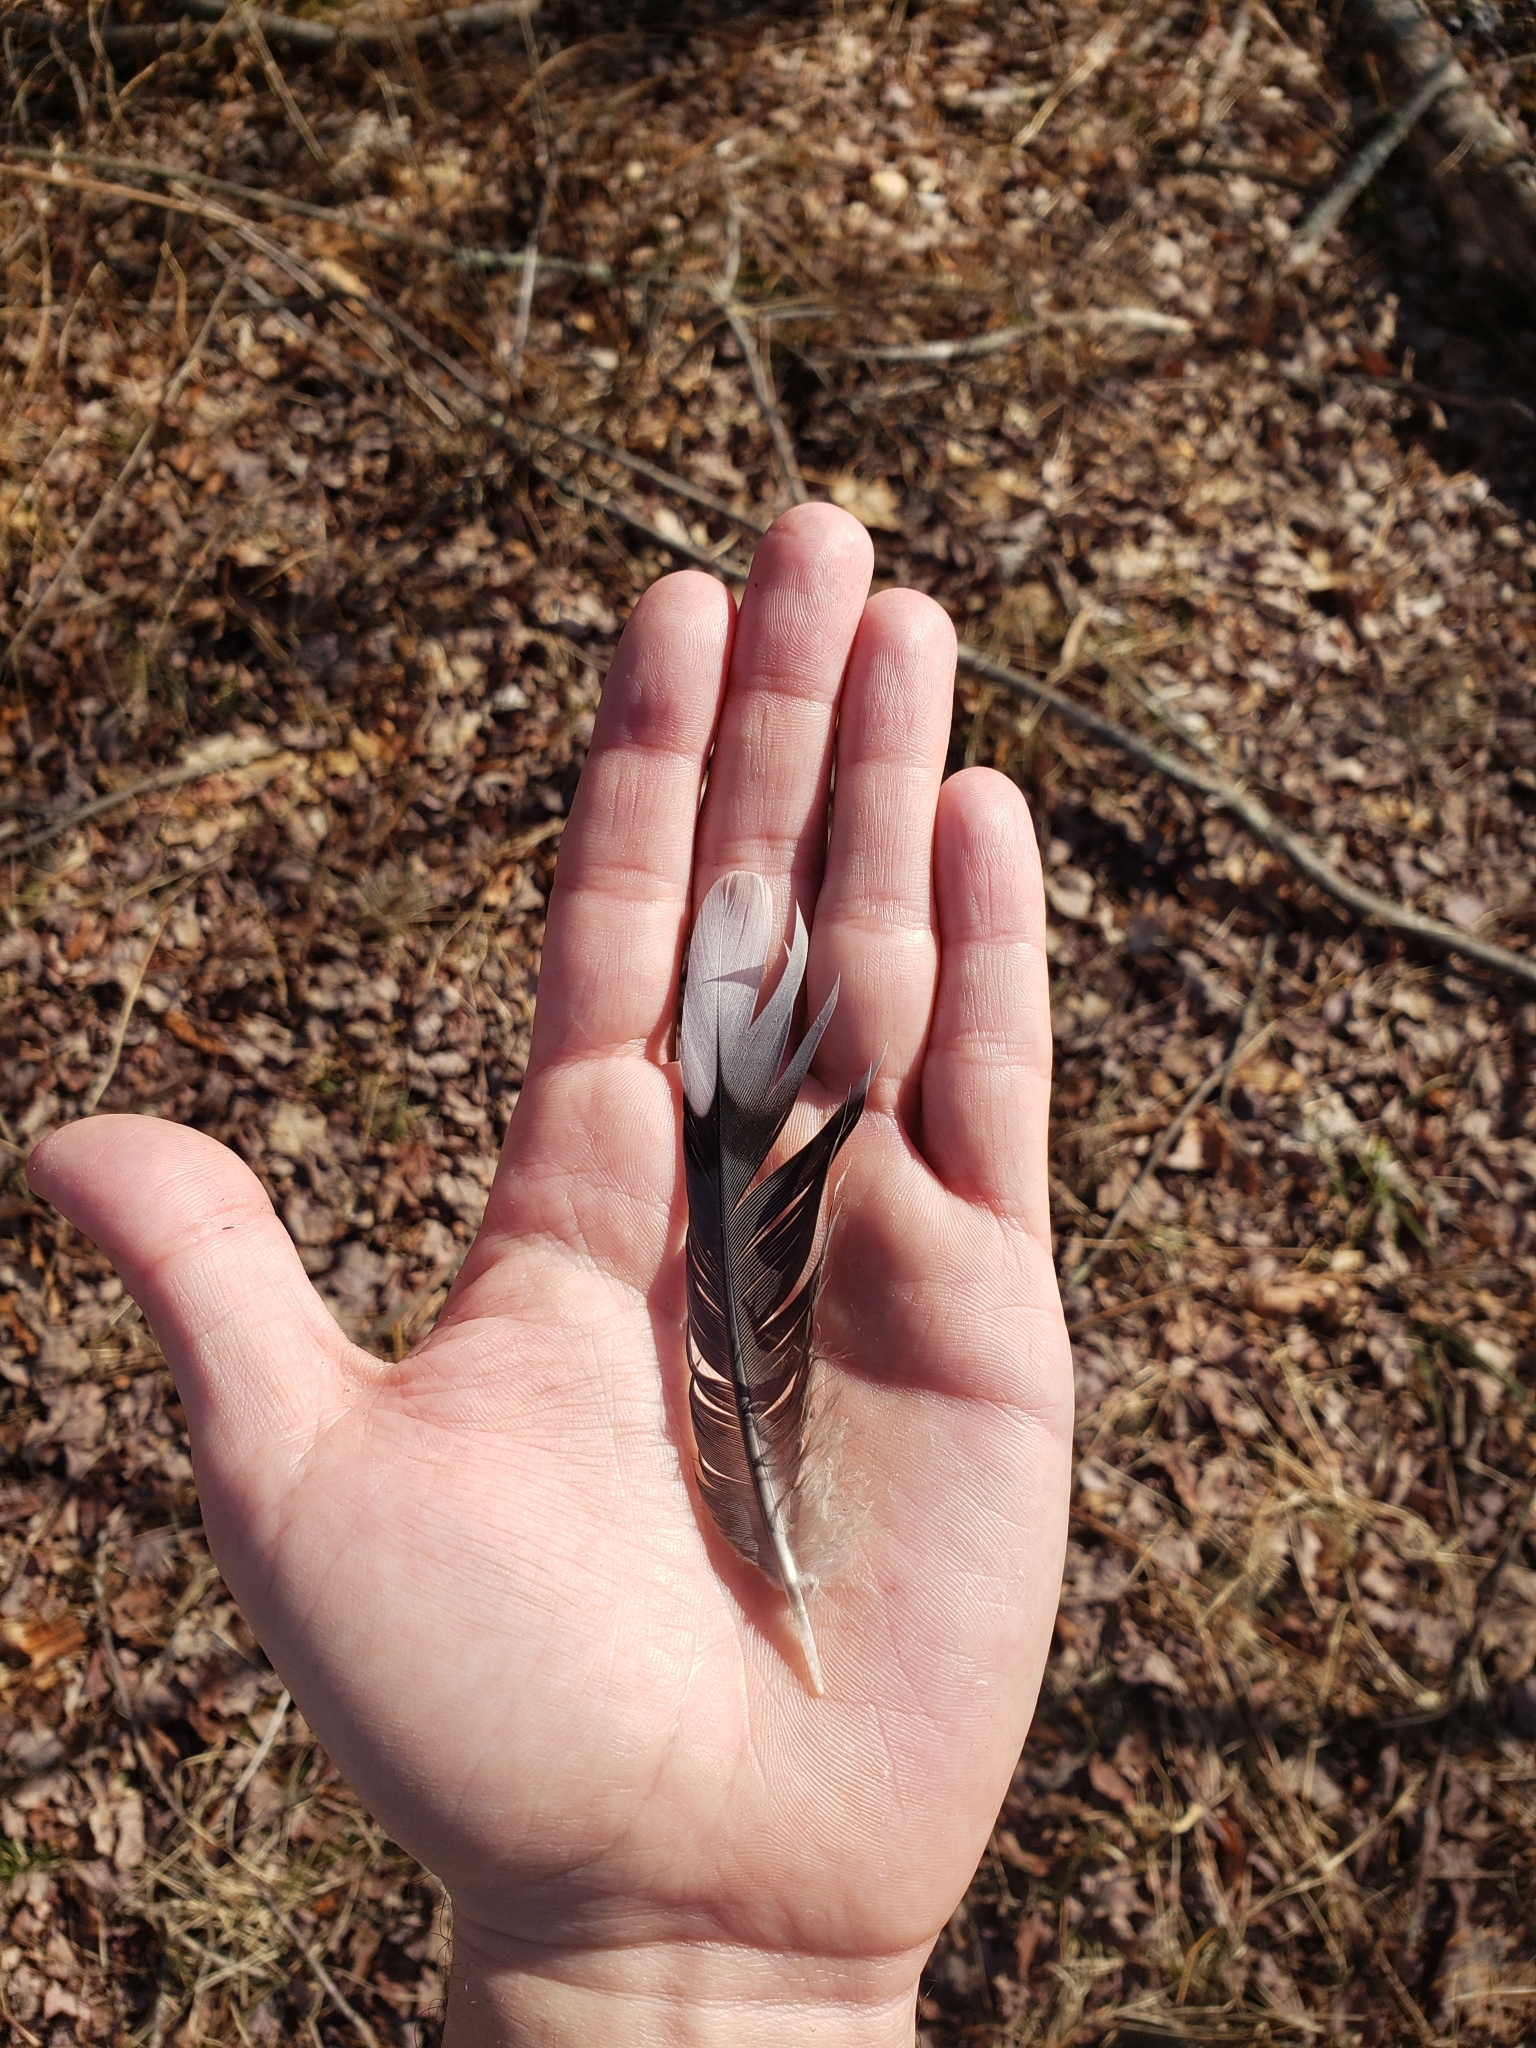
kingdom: Animalia
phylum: Chordata
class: Aves
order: Columbiformes
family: Columbidae
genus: Zenaida
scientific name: Zenaida macroura
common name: Mourning dove
